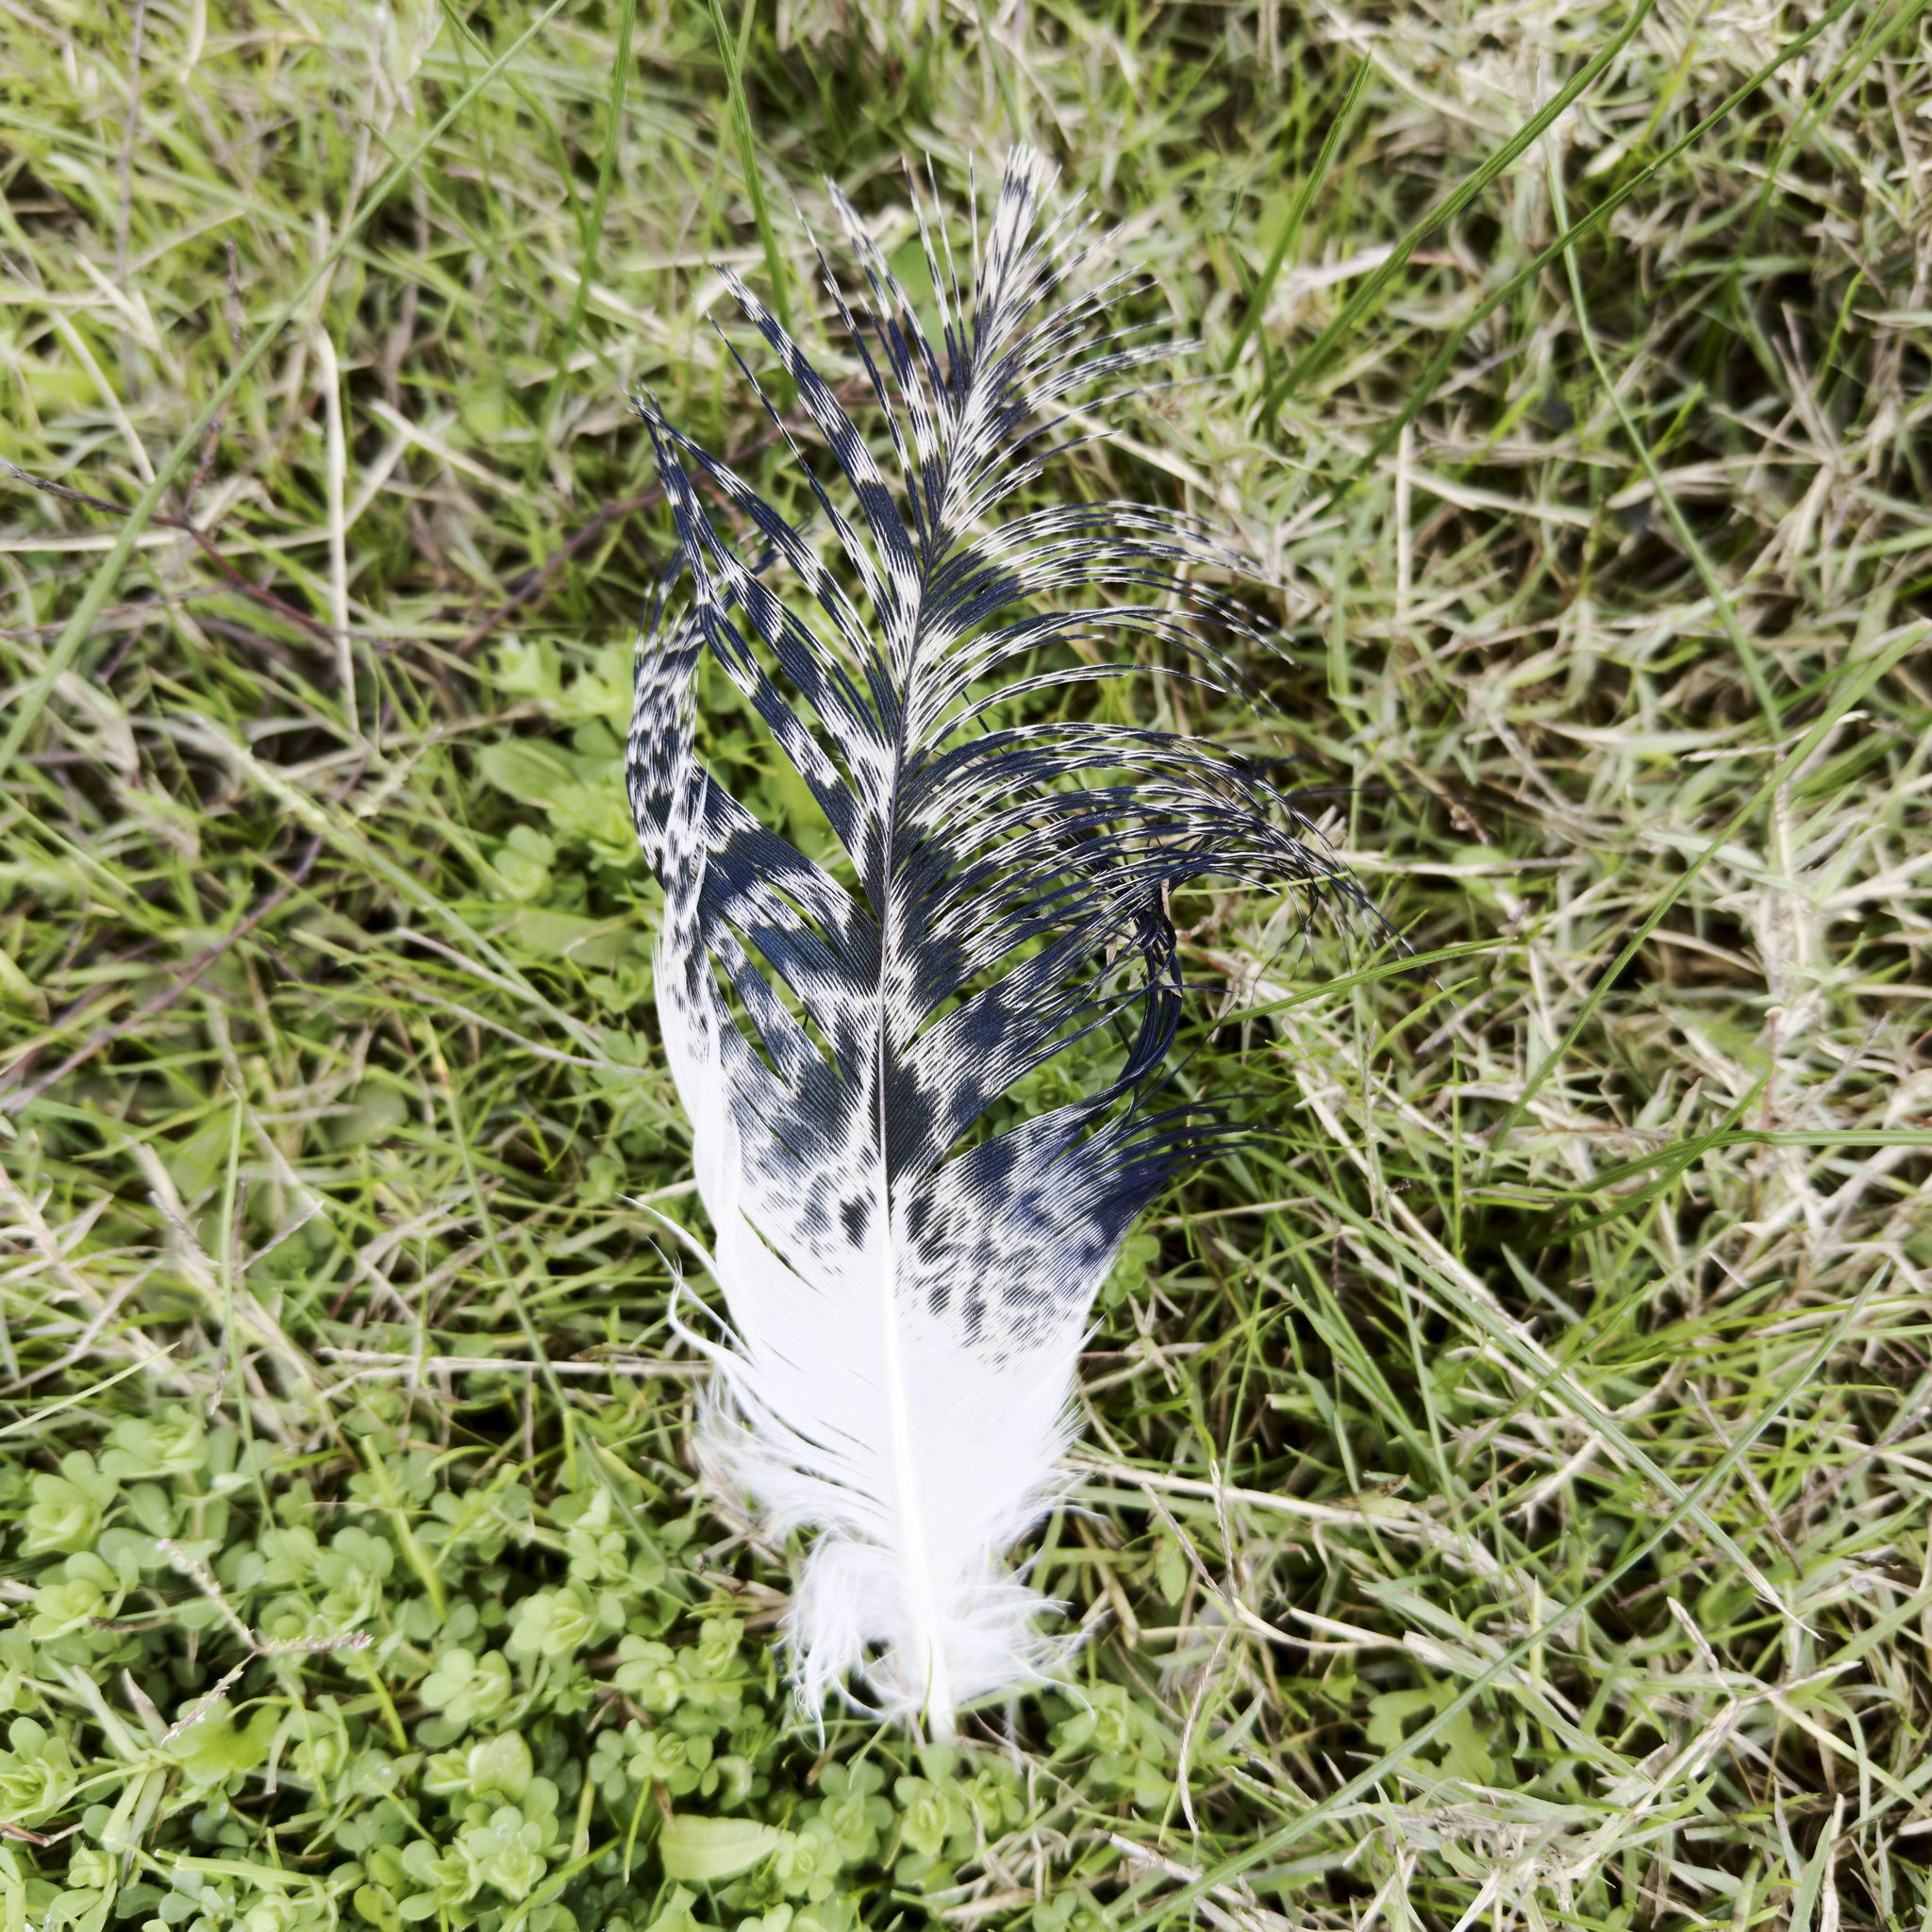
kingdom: Animalia
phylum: Chordata
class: Aves
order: Pelecaniformes
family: Threskiornithidae
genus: Threskiornis
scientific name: Threskiornis molucca
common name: Australian white ibis
